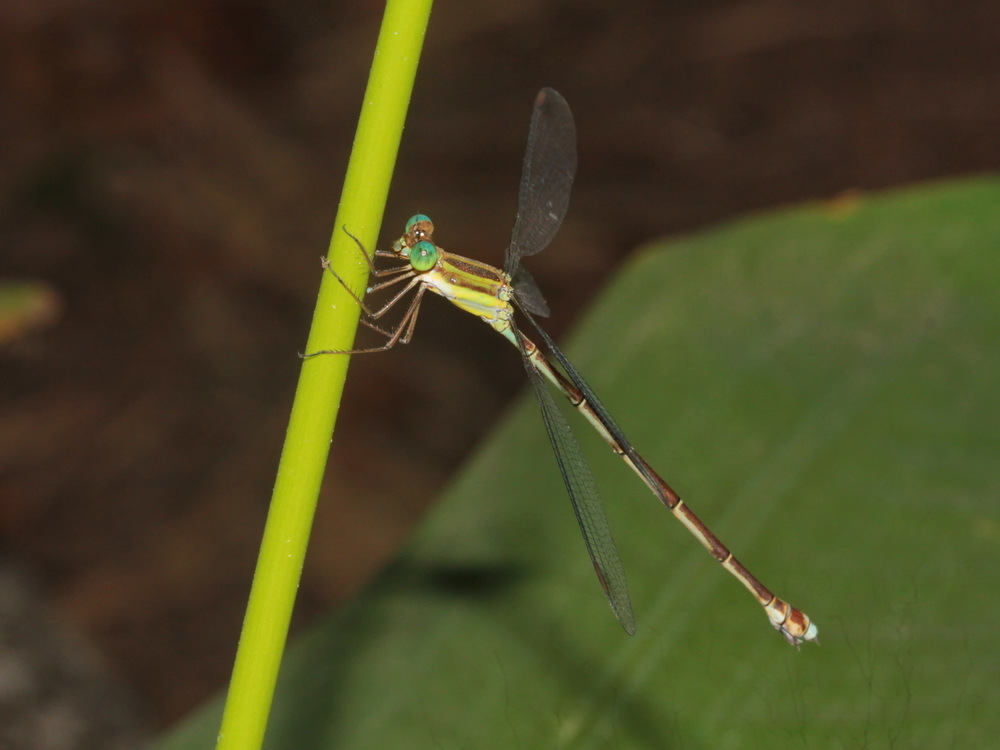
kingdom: Animalia
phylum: Arthropoda
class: Insecta
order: Odonata
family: Lestidae
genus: Orolestes
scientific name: Orolestes octomaculatus
